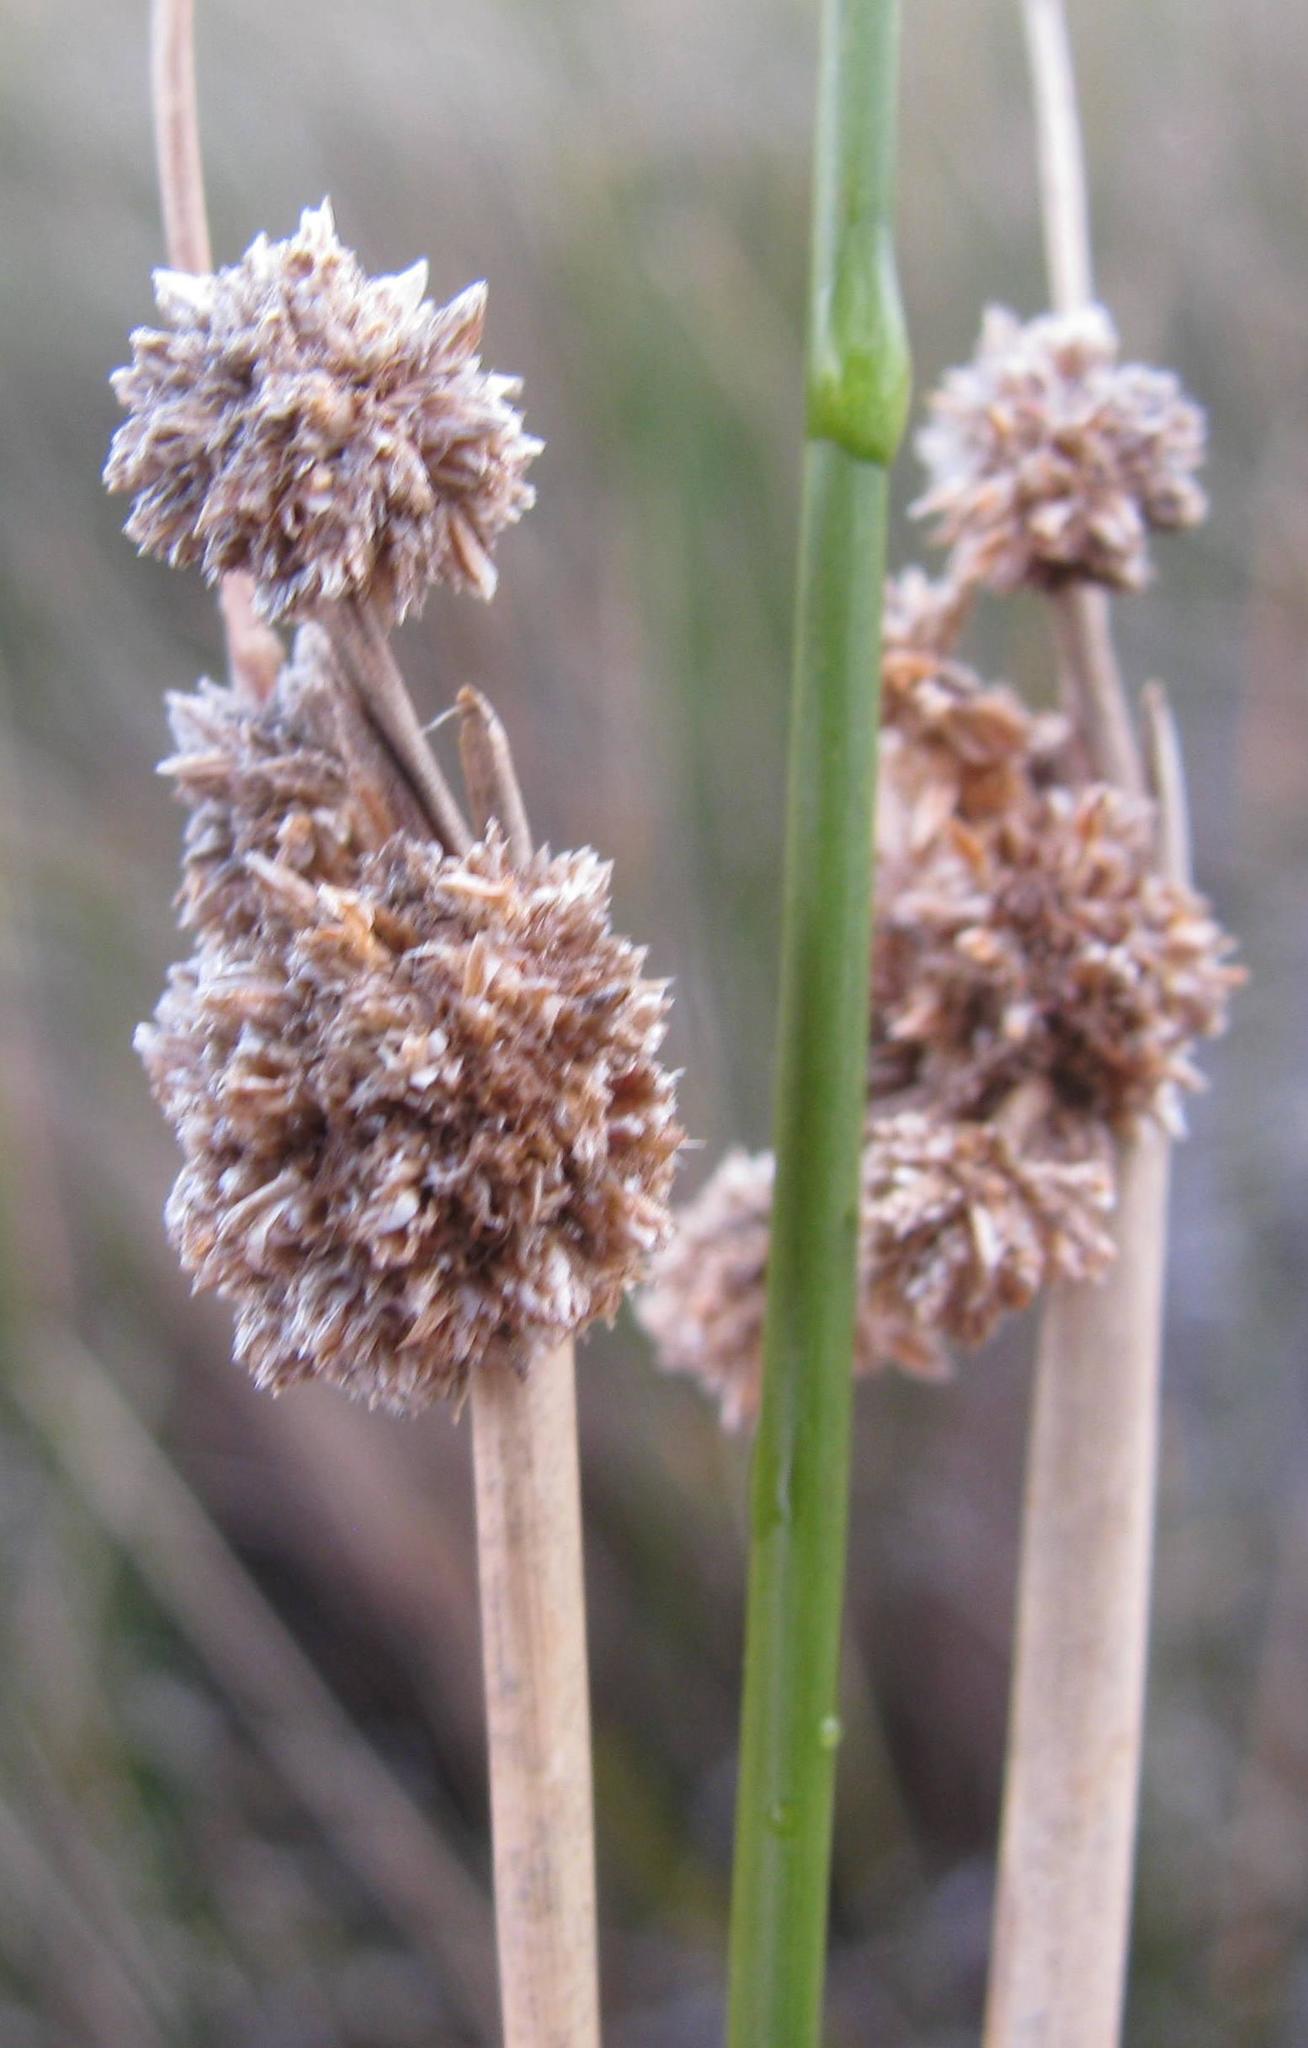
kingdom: Plantae
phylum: Tracheophyta
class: Liliopsida
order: Poales
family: Cyperaceae
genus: Scirpoides
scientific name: Scirpoides holoschoenus
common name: Round-headed club-rush
